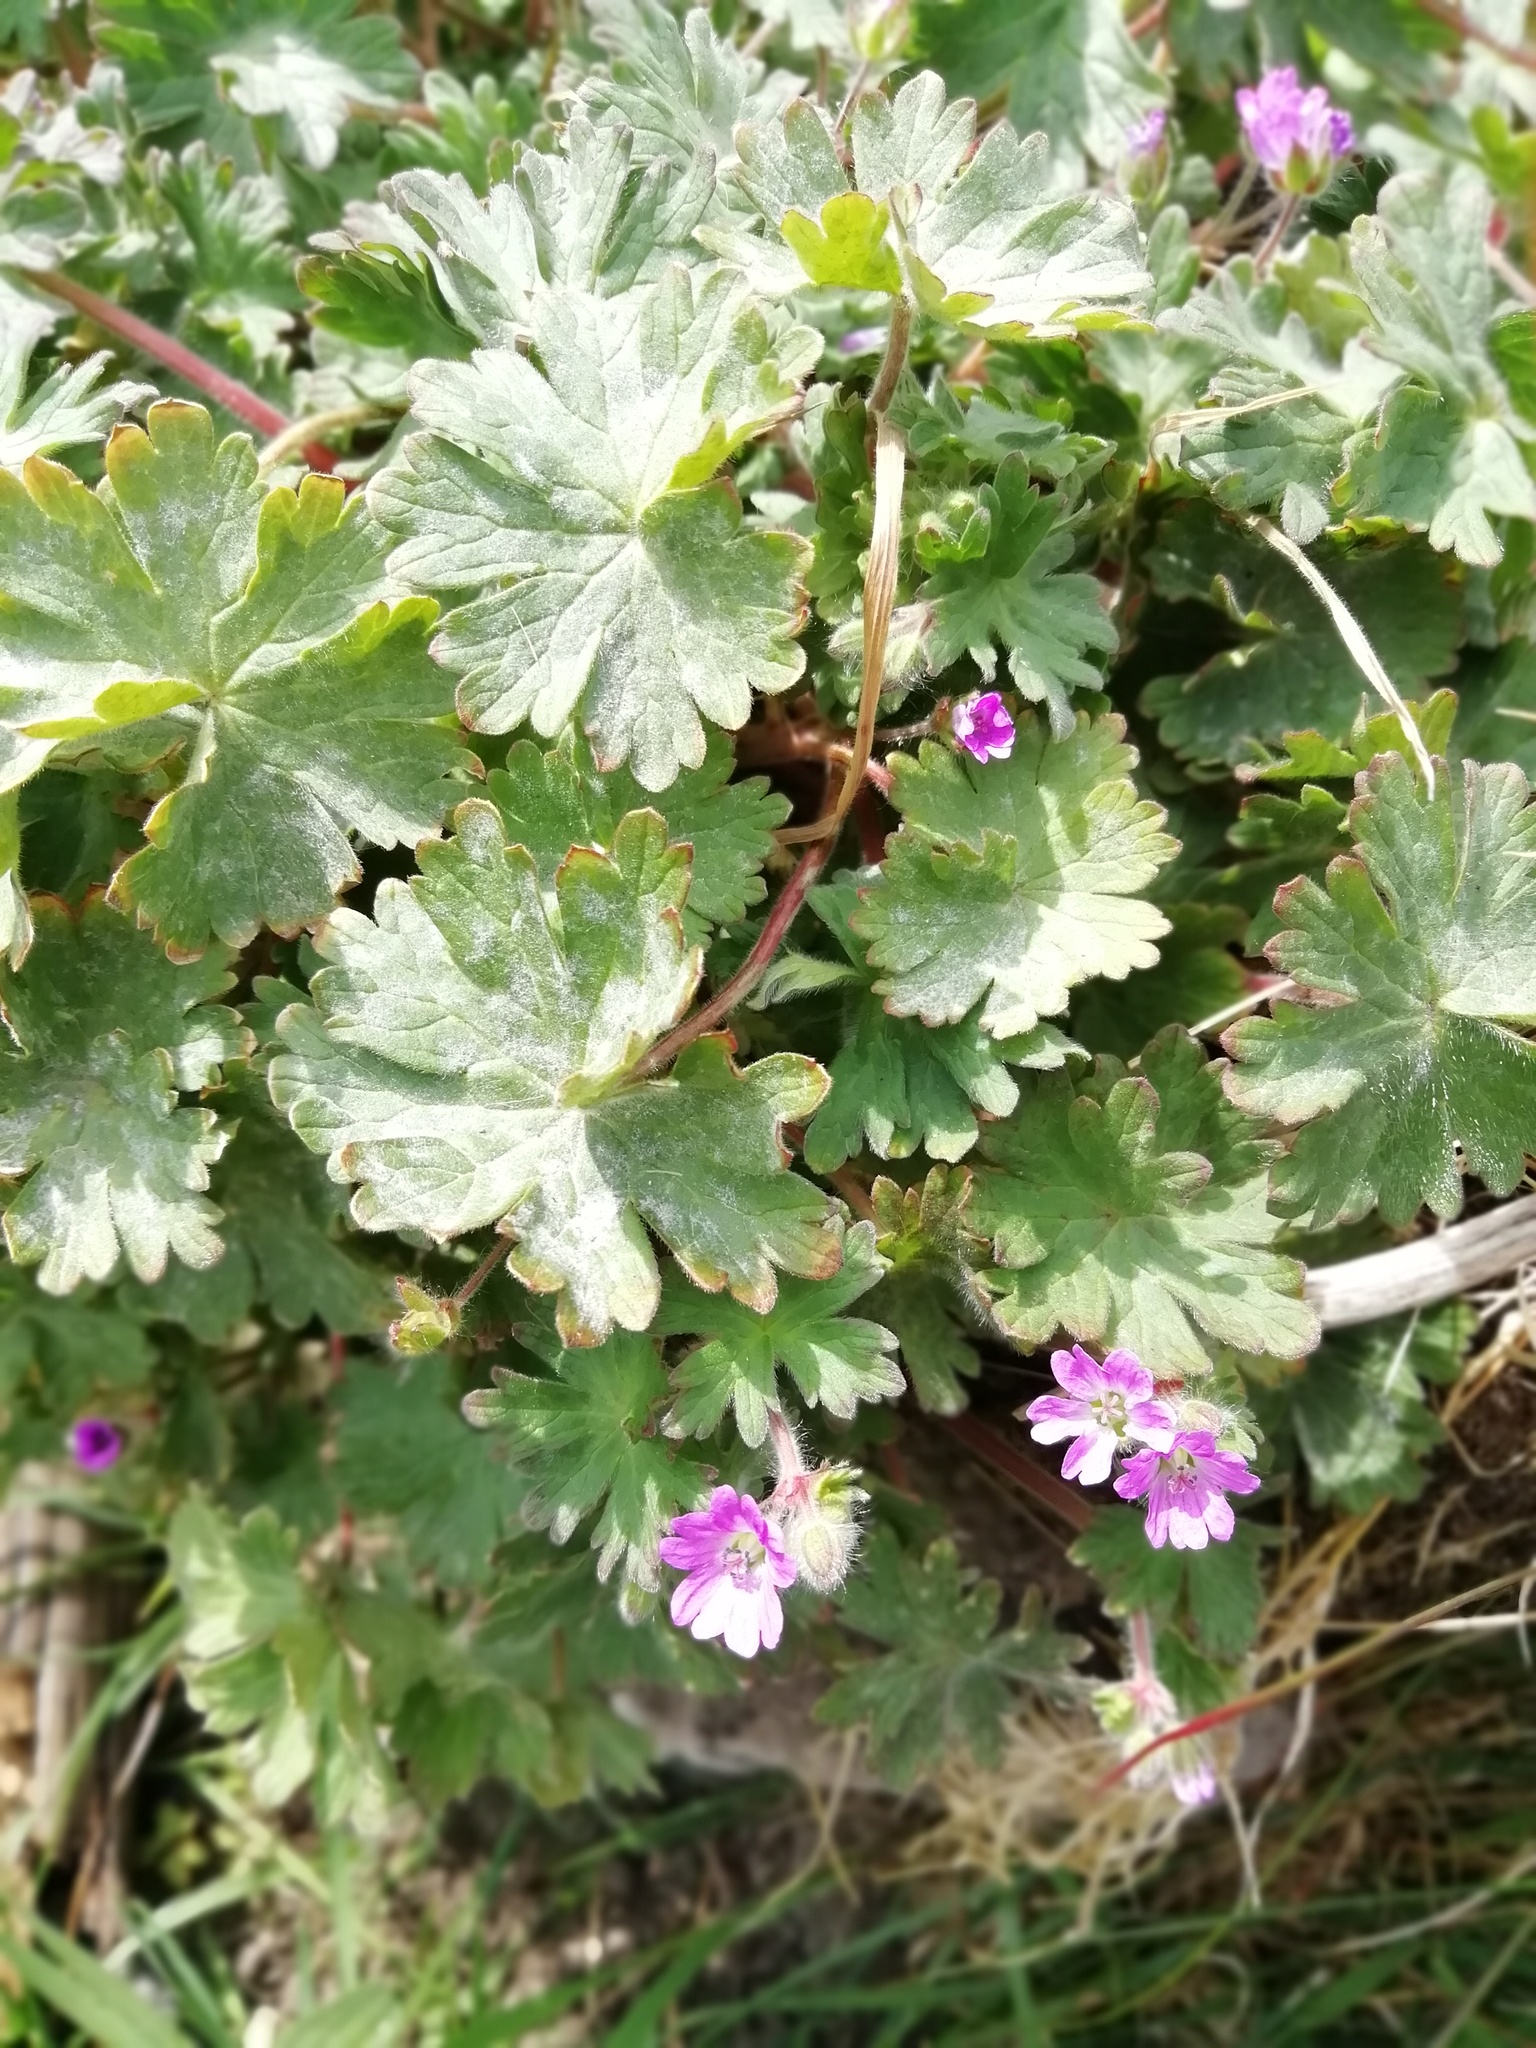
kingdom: Plantae
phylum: Tracheophyta
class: Magnoliopsida
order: Geraniales
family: Geraniaceae
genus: Geranium
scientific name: Geranium molle
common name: Dove's-foot crane's-bill
